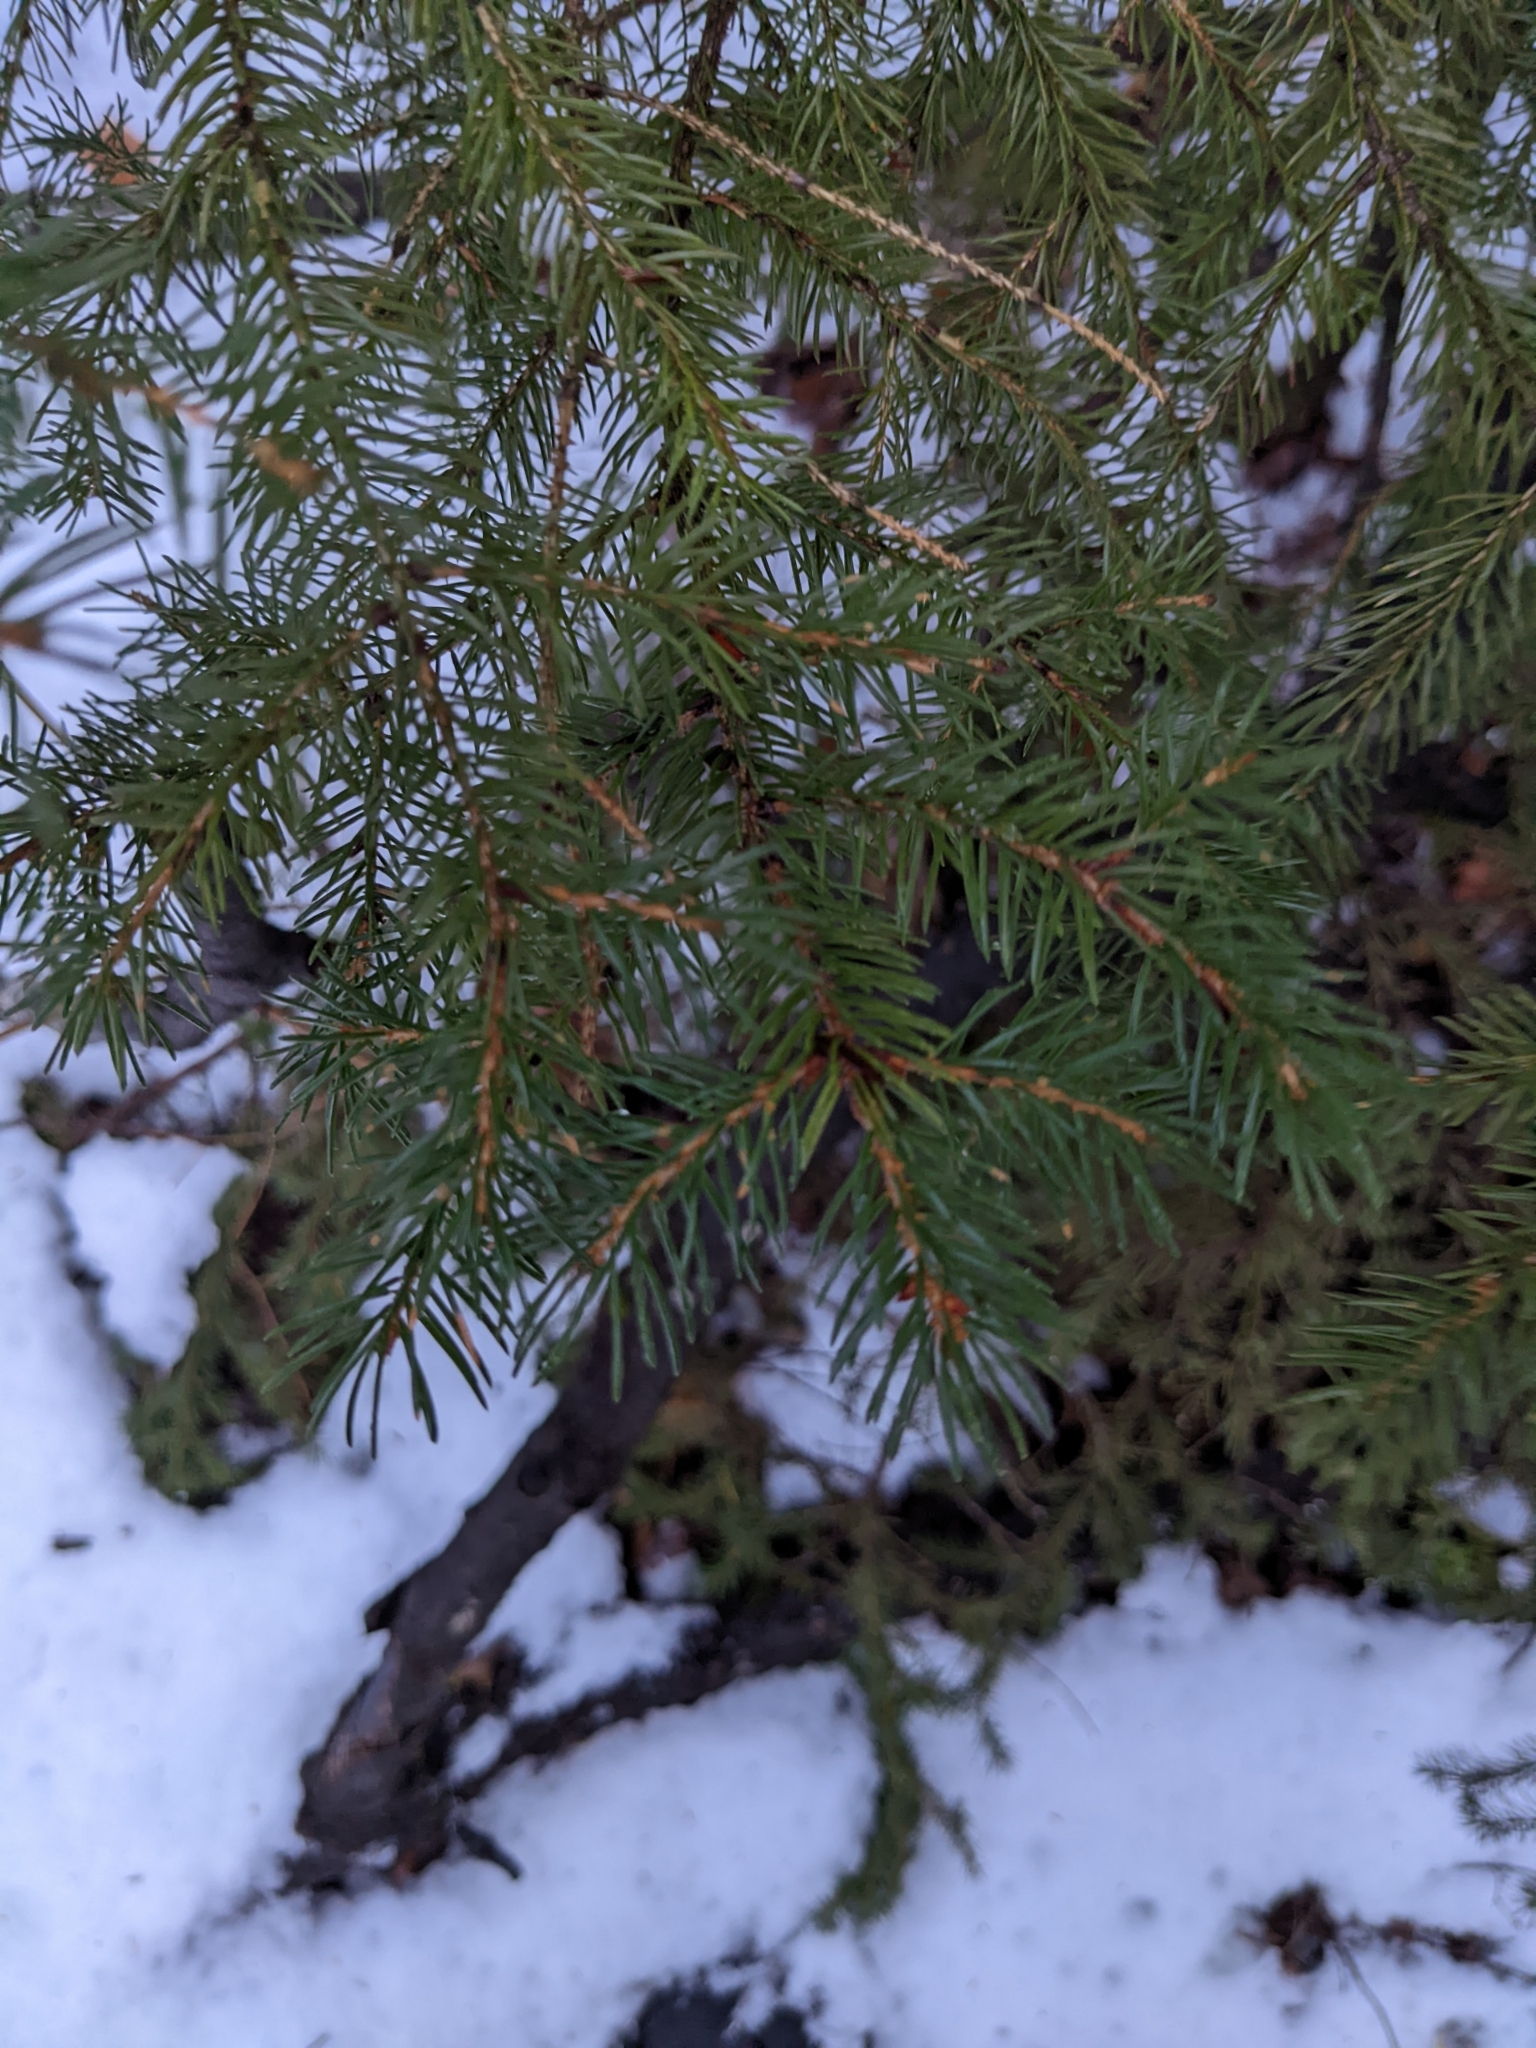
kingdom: Plantae
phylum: Tracheophyta
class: Pinopsida
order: Pinales
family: Pinaceae
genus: Picea
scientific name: Picea rubens
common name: Red spruce
